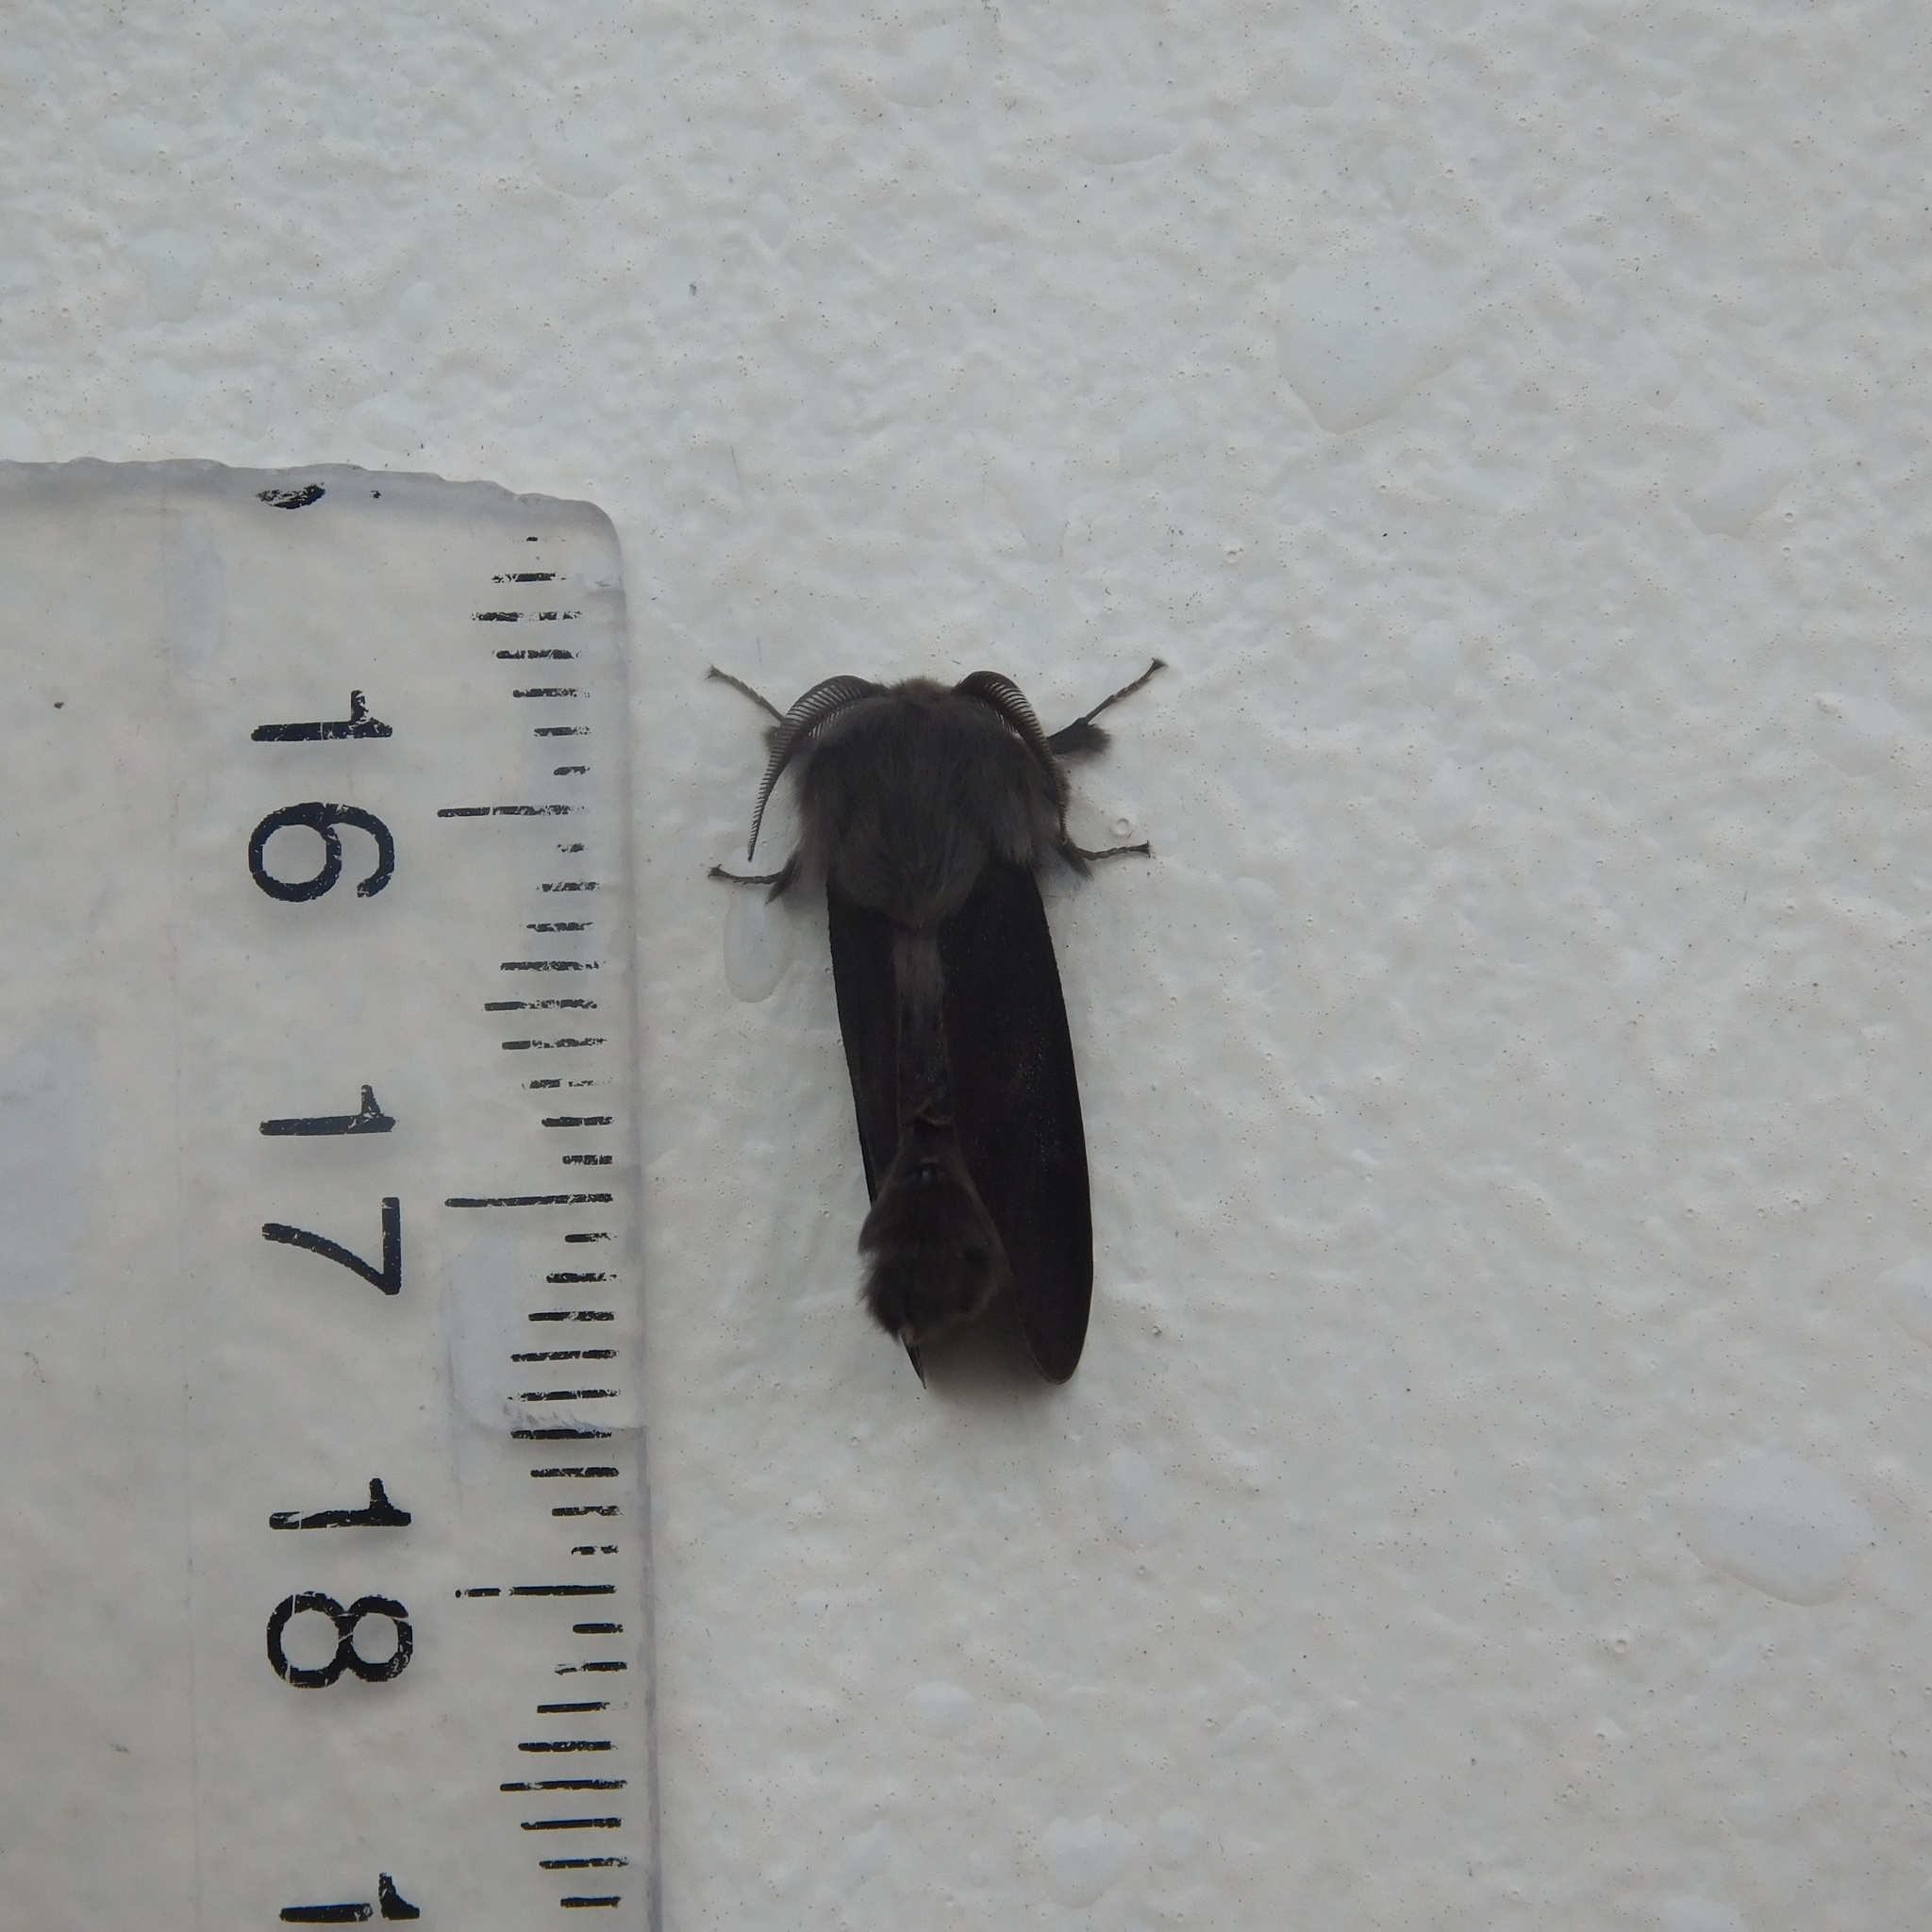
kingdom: Animalia
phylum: Arthropoda
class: Insecta
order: Lepidoptera
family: Psychidae
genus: Liothula
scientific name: Liothula omnivora
